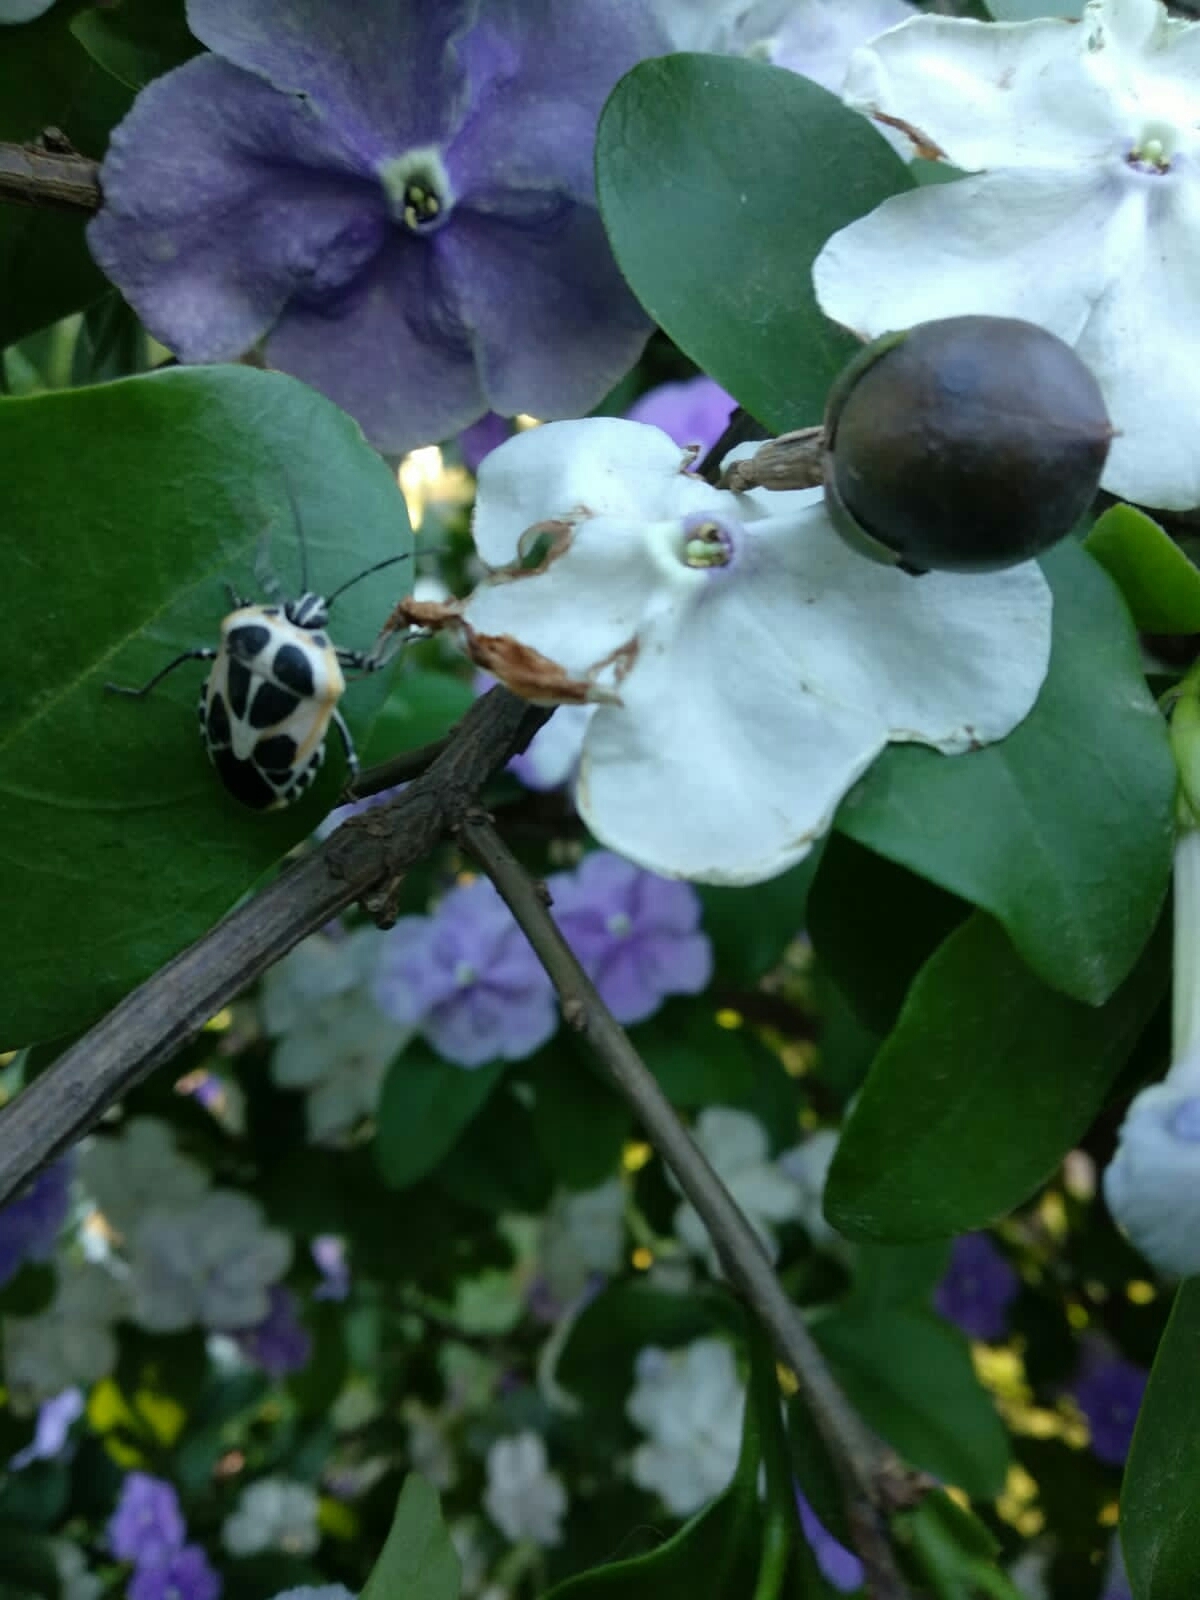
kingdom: Animalia
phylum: Arthropoda
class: Insecta
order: Hemiptera
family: Pentatomidae
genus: Runibia
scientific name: Runibia perspicua
